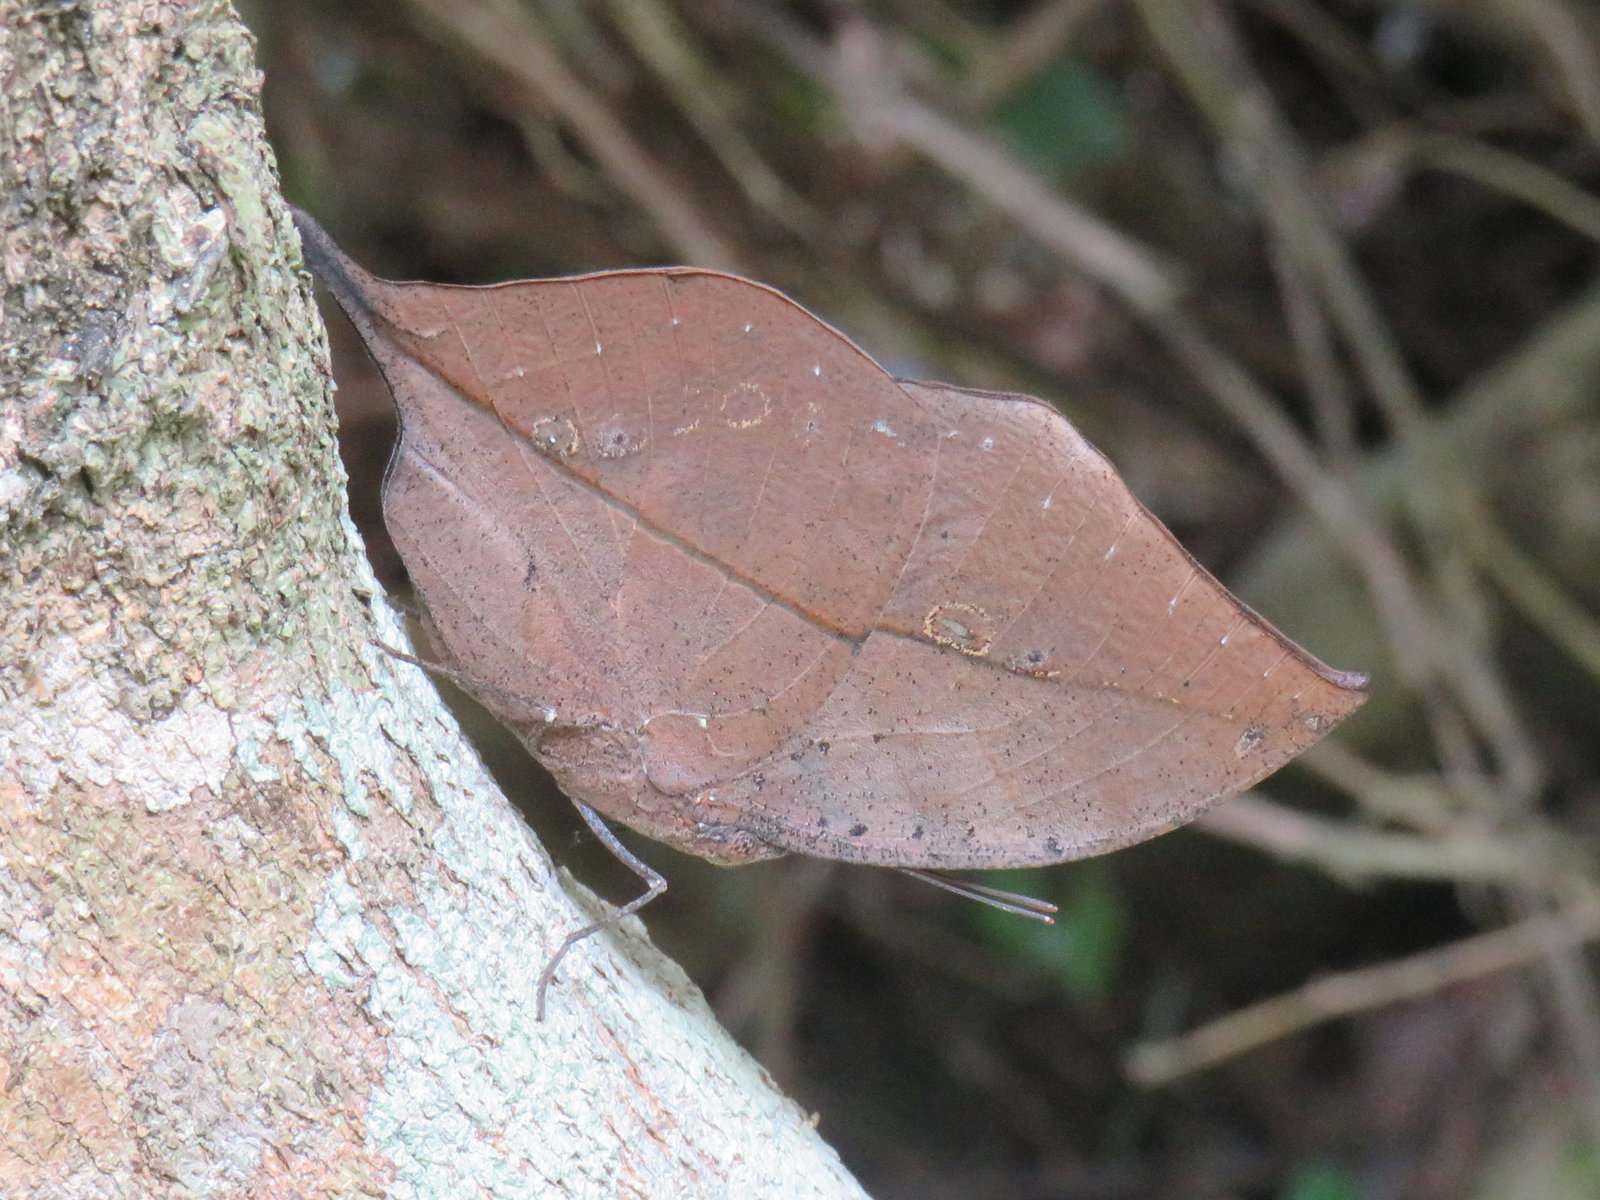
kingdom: Animalia
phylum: Arthropoda
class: Insecta
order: Lepidoptera
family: Nymphalidae
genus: Kallima
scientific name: Kallima inachus
